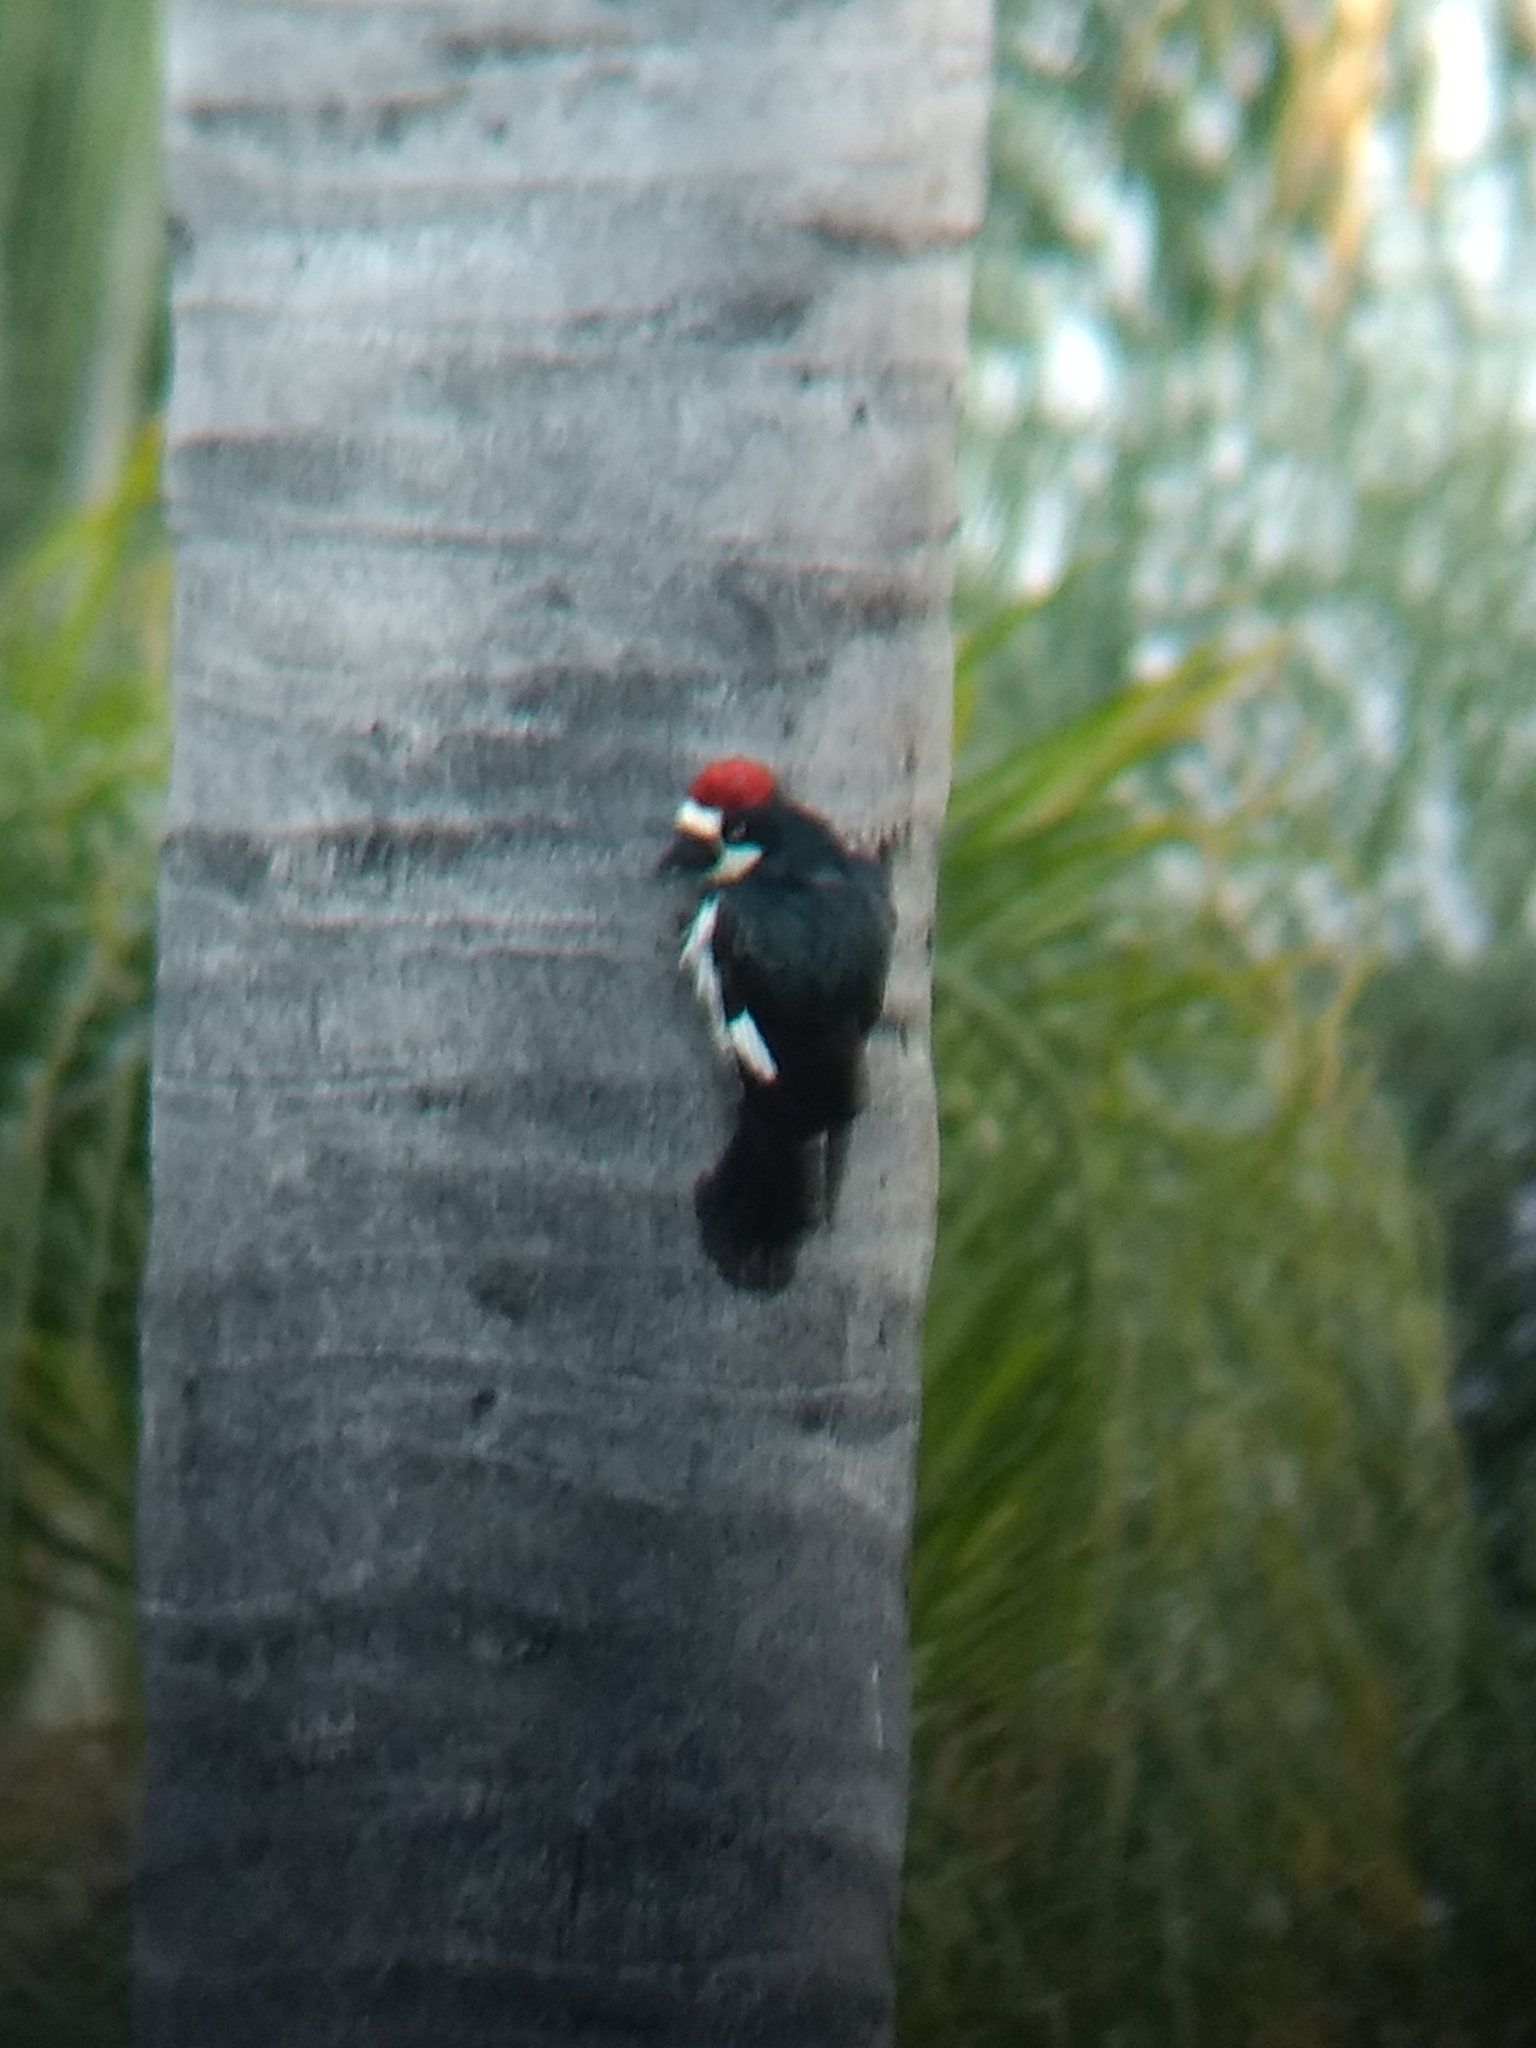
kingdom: Animalia
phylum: Chordata
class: Aves
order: Piciformes
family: Picidae
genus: Melanerpes
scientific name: Melanerpes formicivorus
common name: Acorn woodpecker
